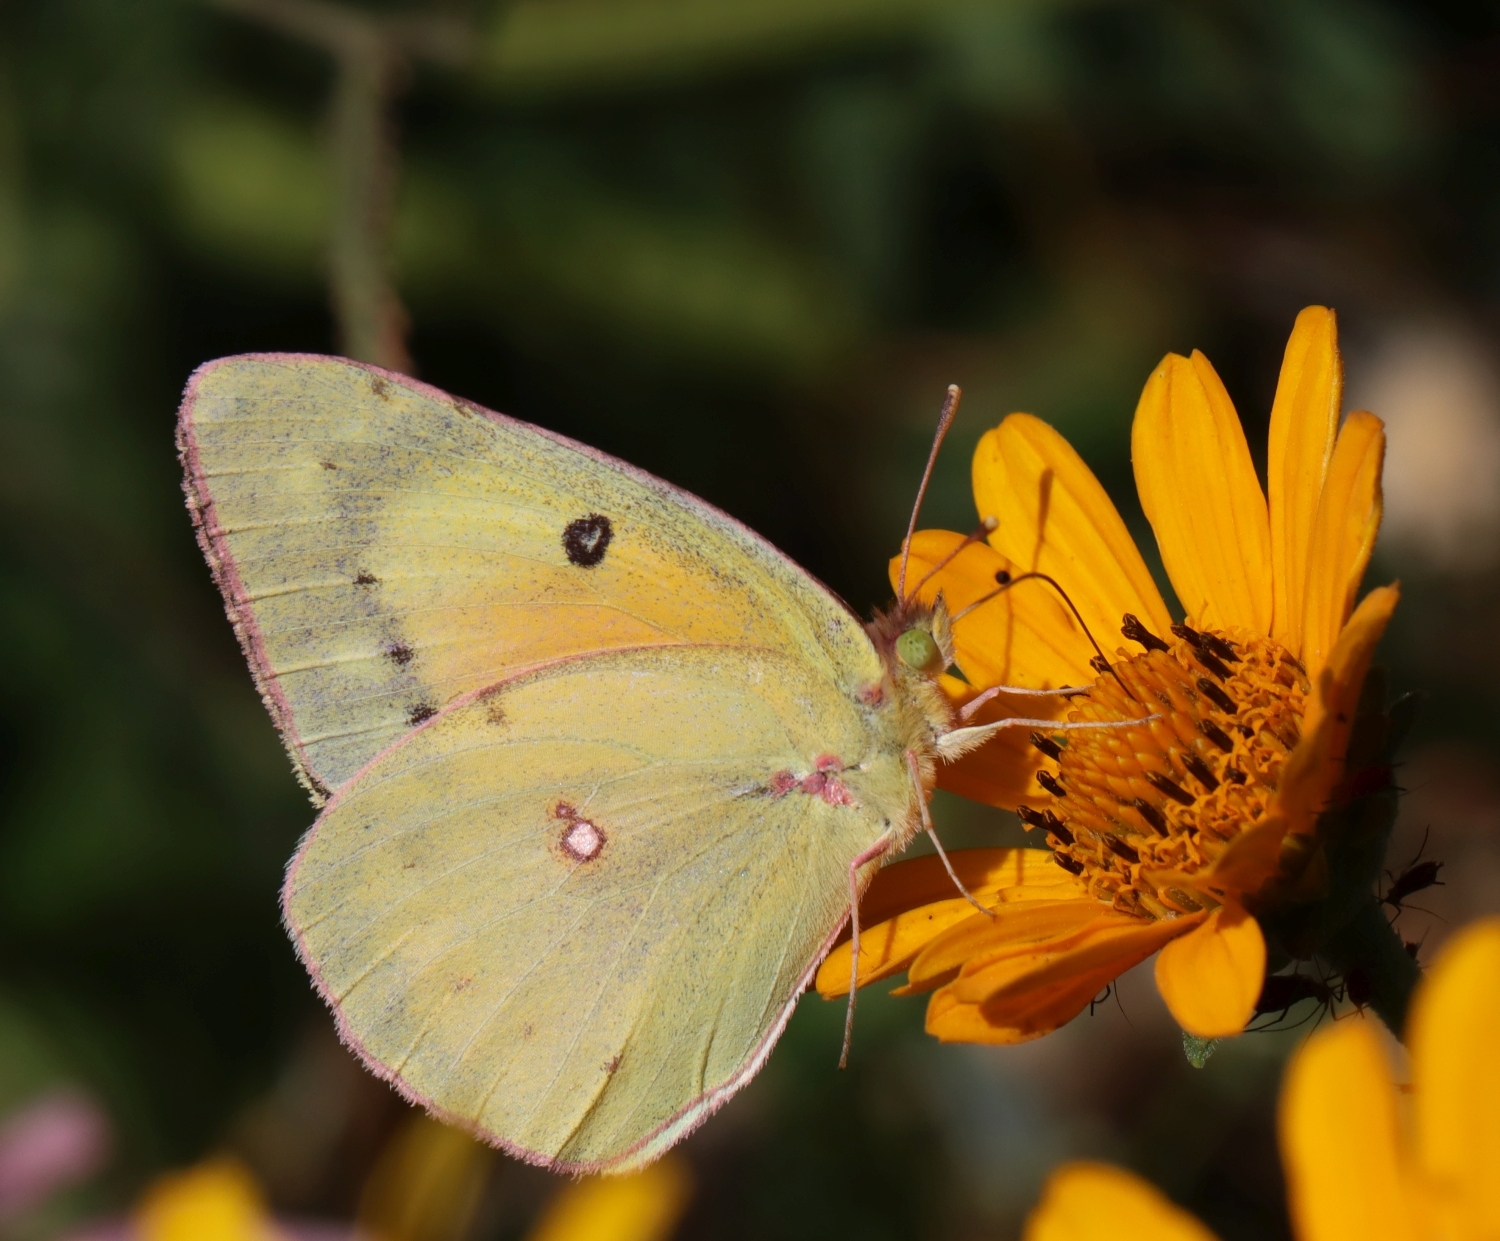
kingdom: Animalia
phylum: Arthropoda
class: Insecta
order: Lepidoptera
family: Pieridae
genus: Colias
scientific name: Colias eurytheme
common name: Alfalfa butterfly
